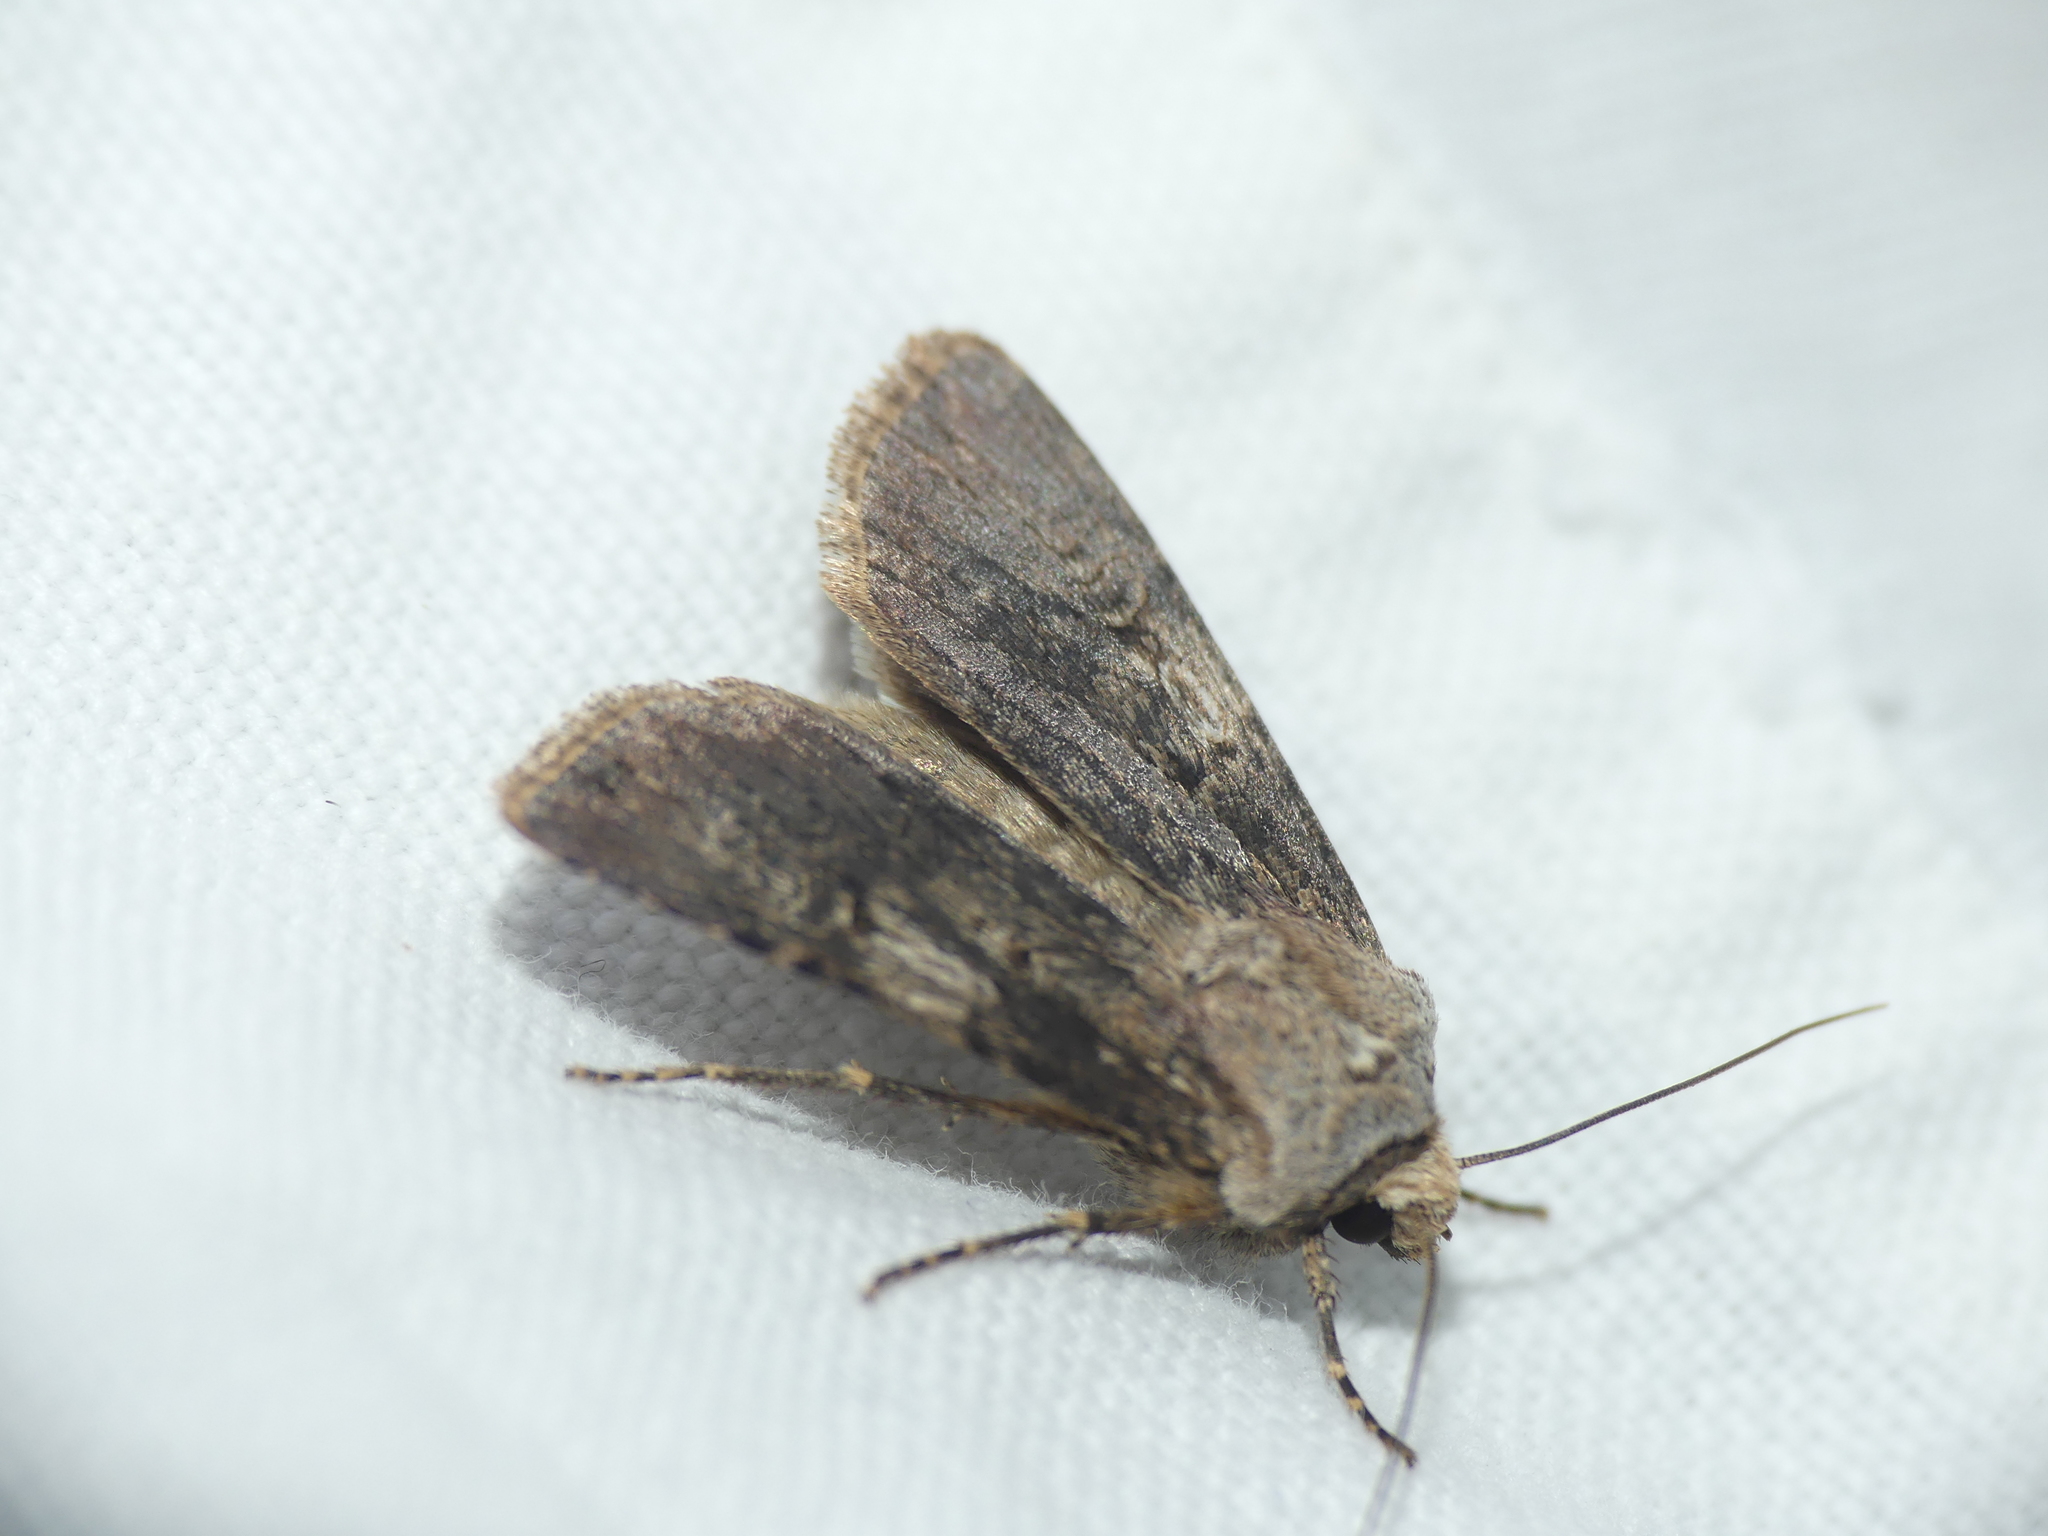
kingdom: Animalia
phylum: Arthropoda
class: Insecta
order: Lepidoptera
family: Noctuidae
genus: Agrotis
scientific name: Agrotis puta
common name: Shuttle-shaped dart
